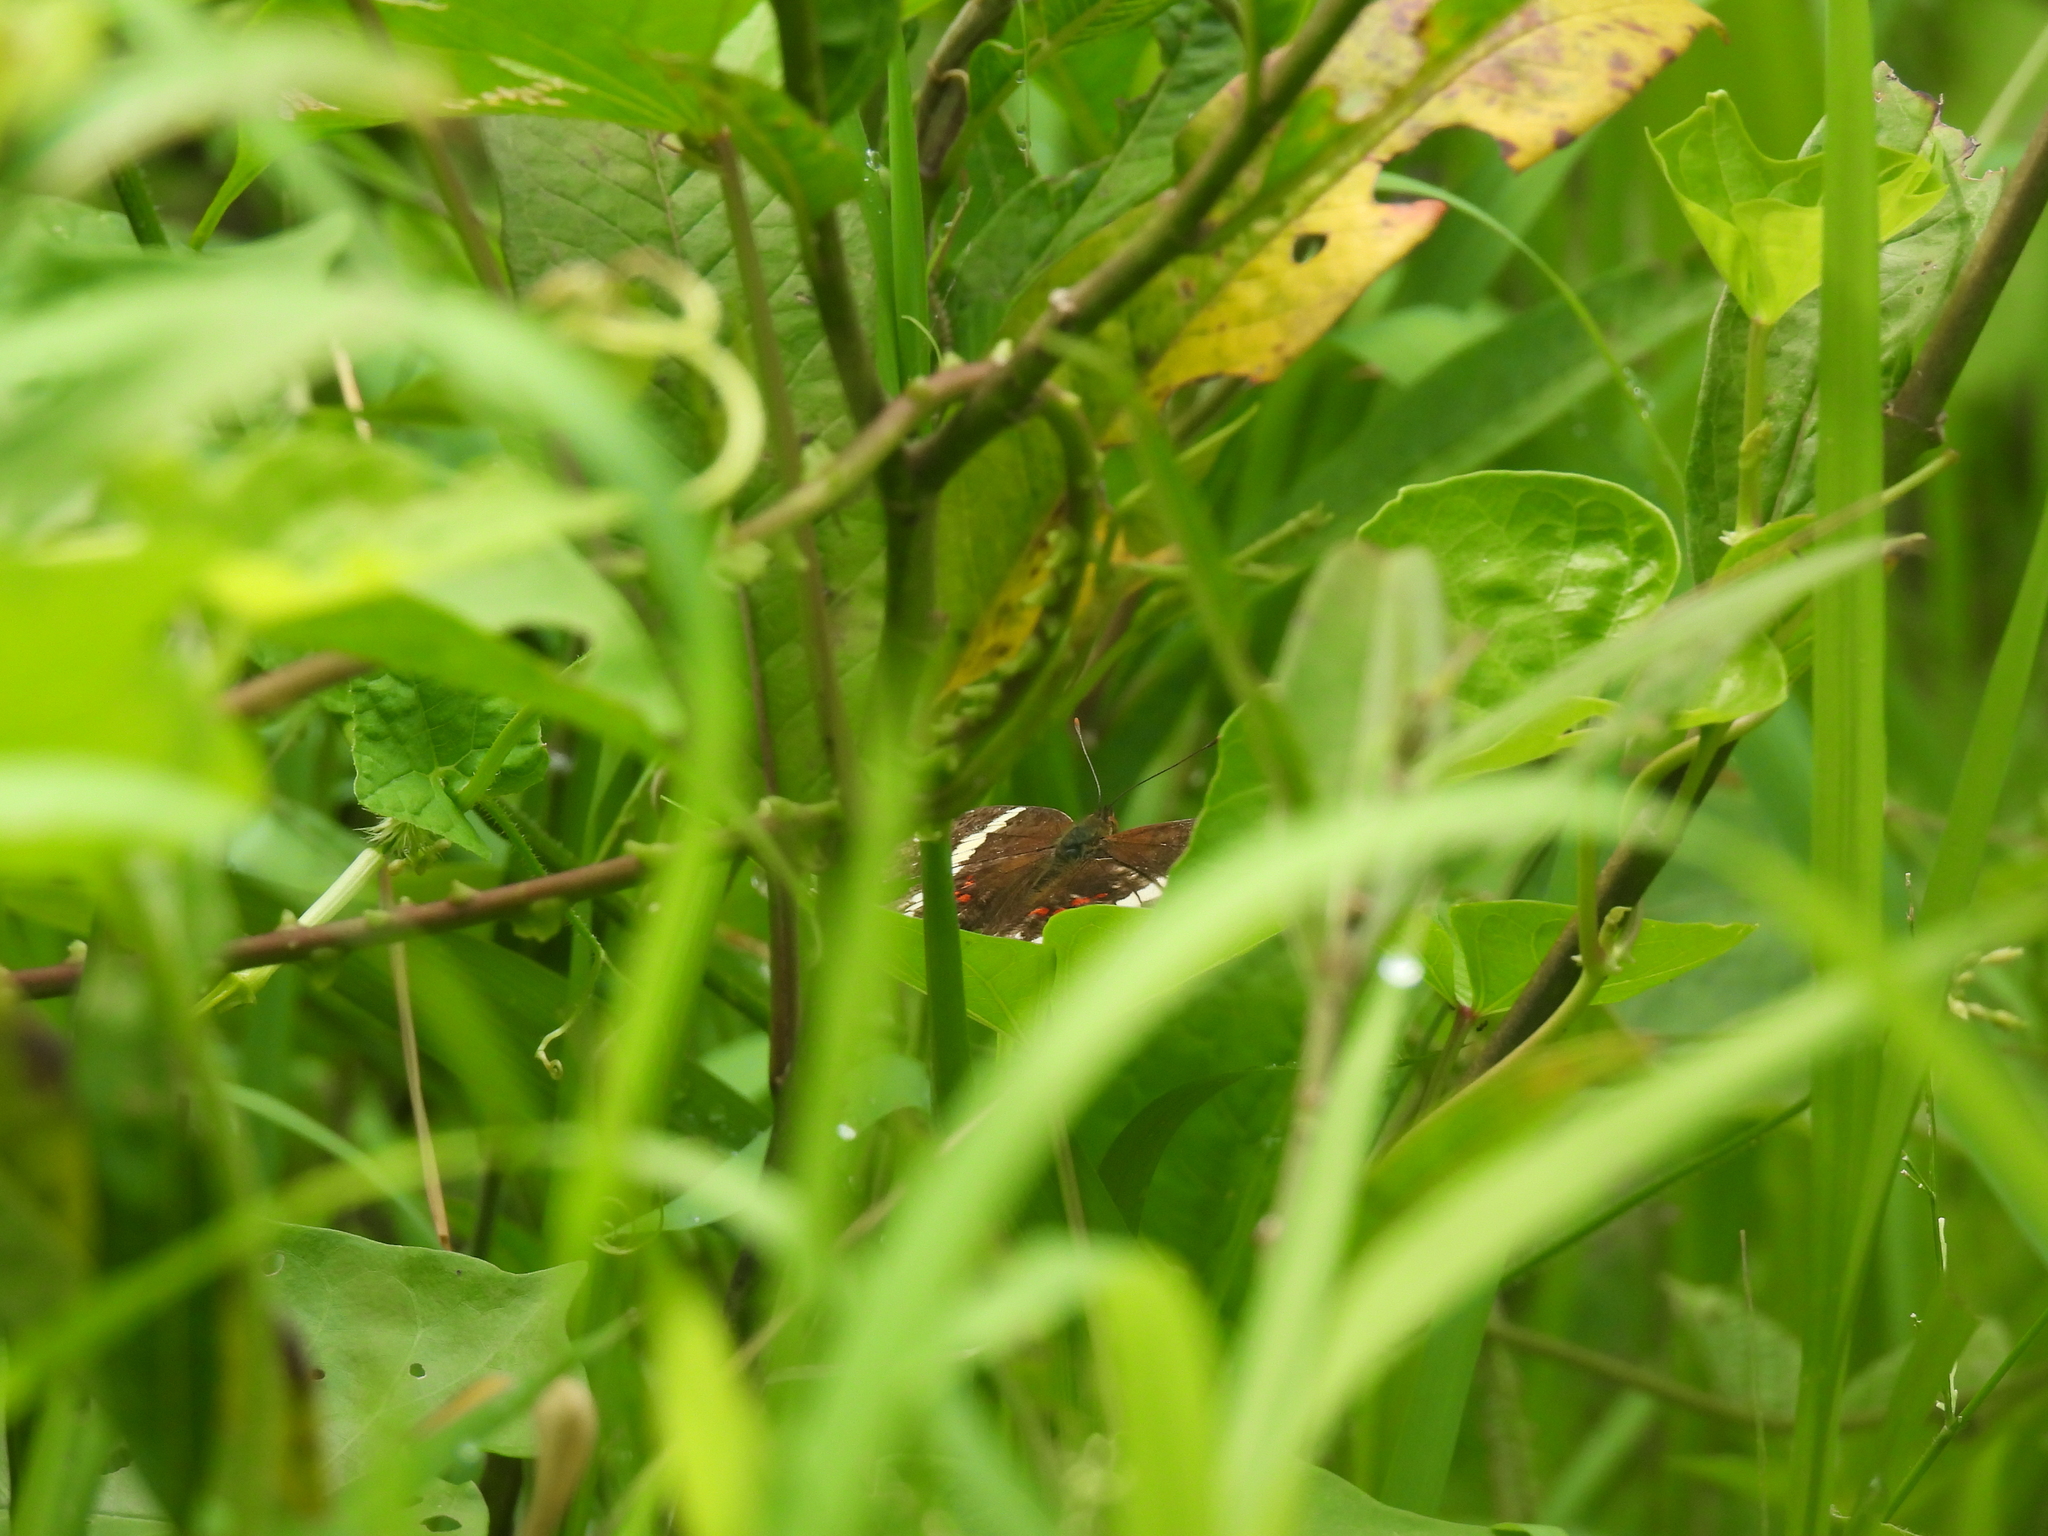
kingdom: Animalia
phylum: Arthropoda
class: Insecta
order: Lepidoptera
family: Nymphalidae
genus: Anartia
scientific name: Anartia fatima
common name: Banded peacock
